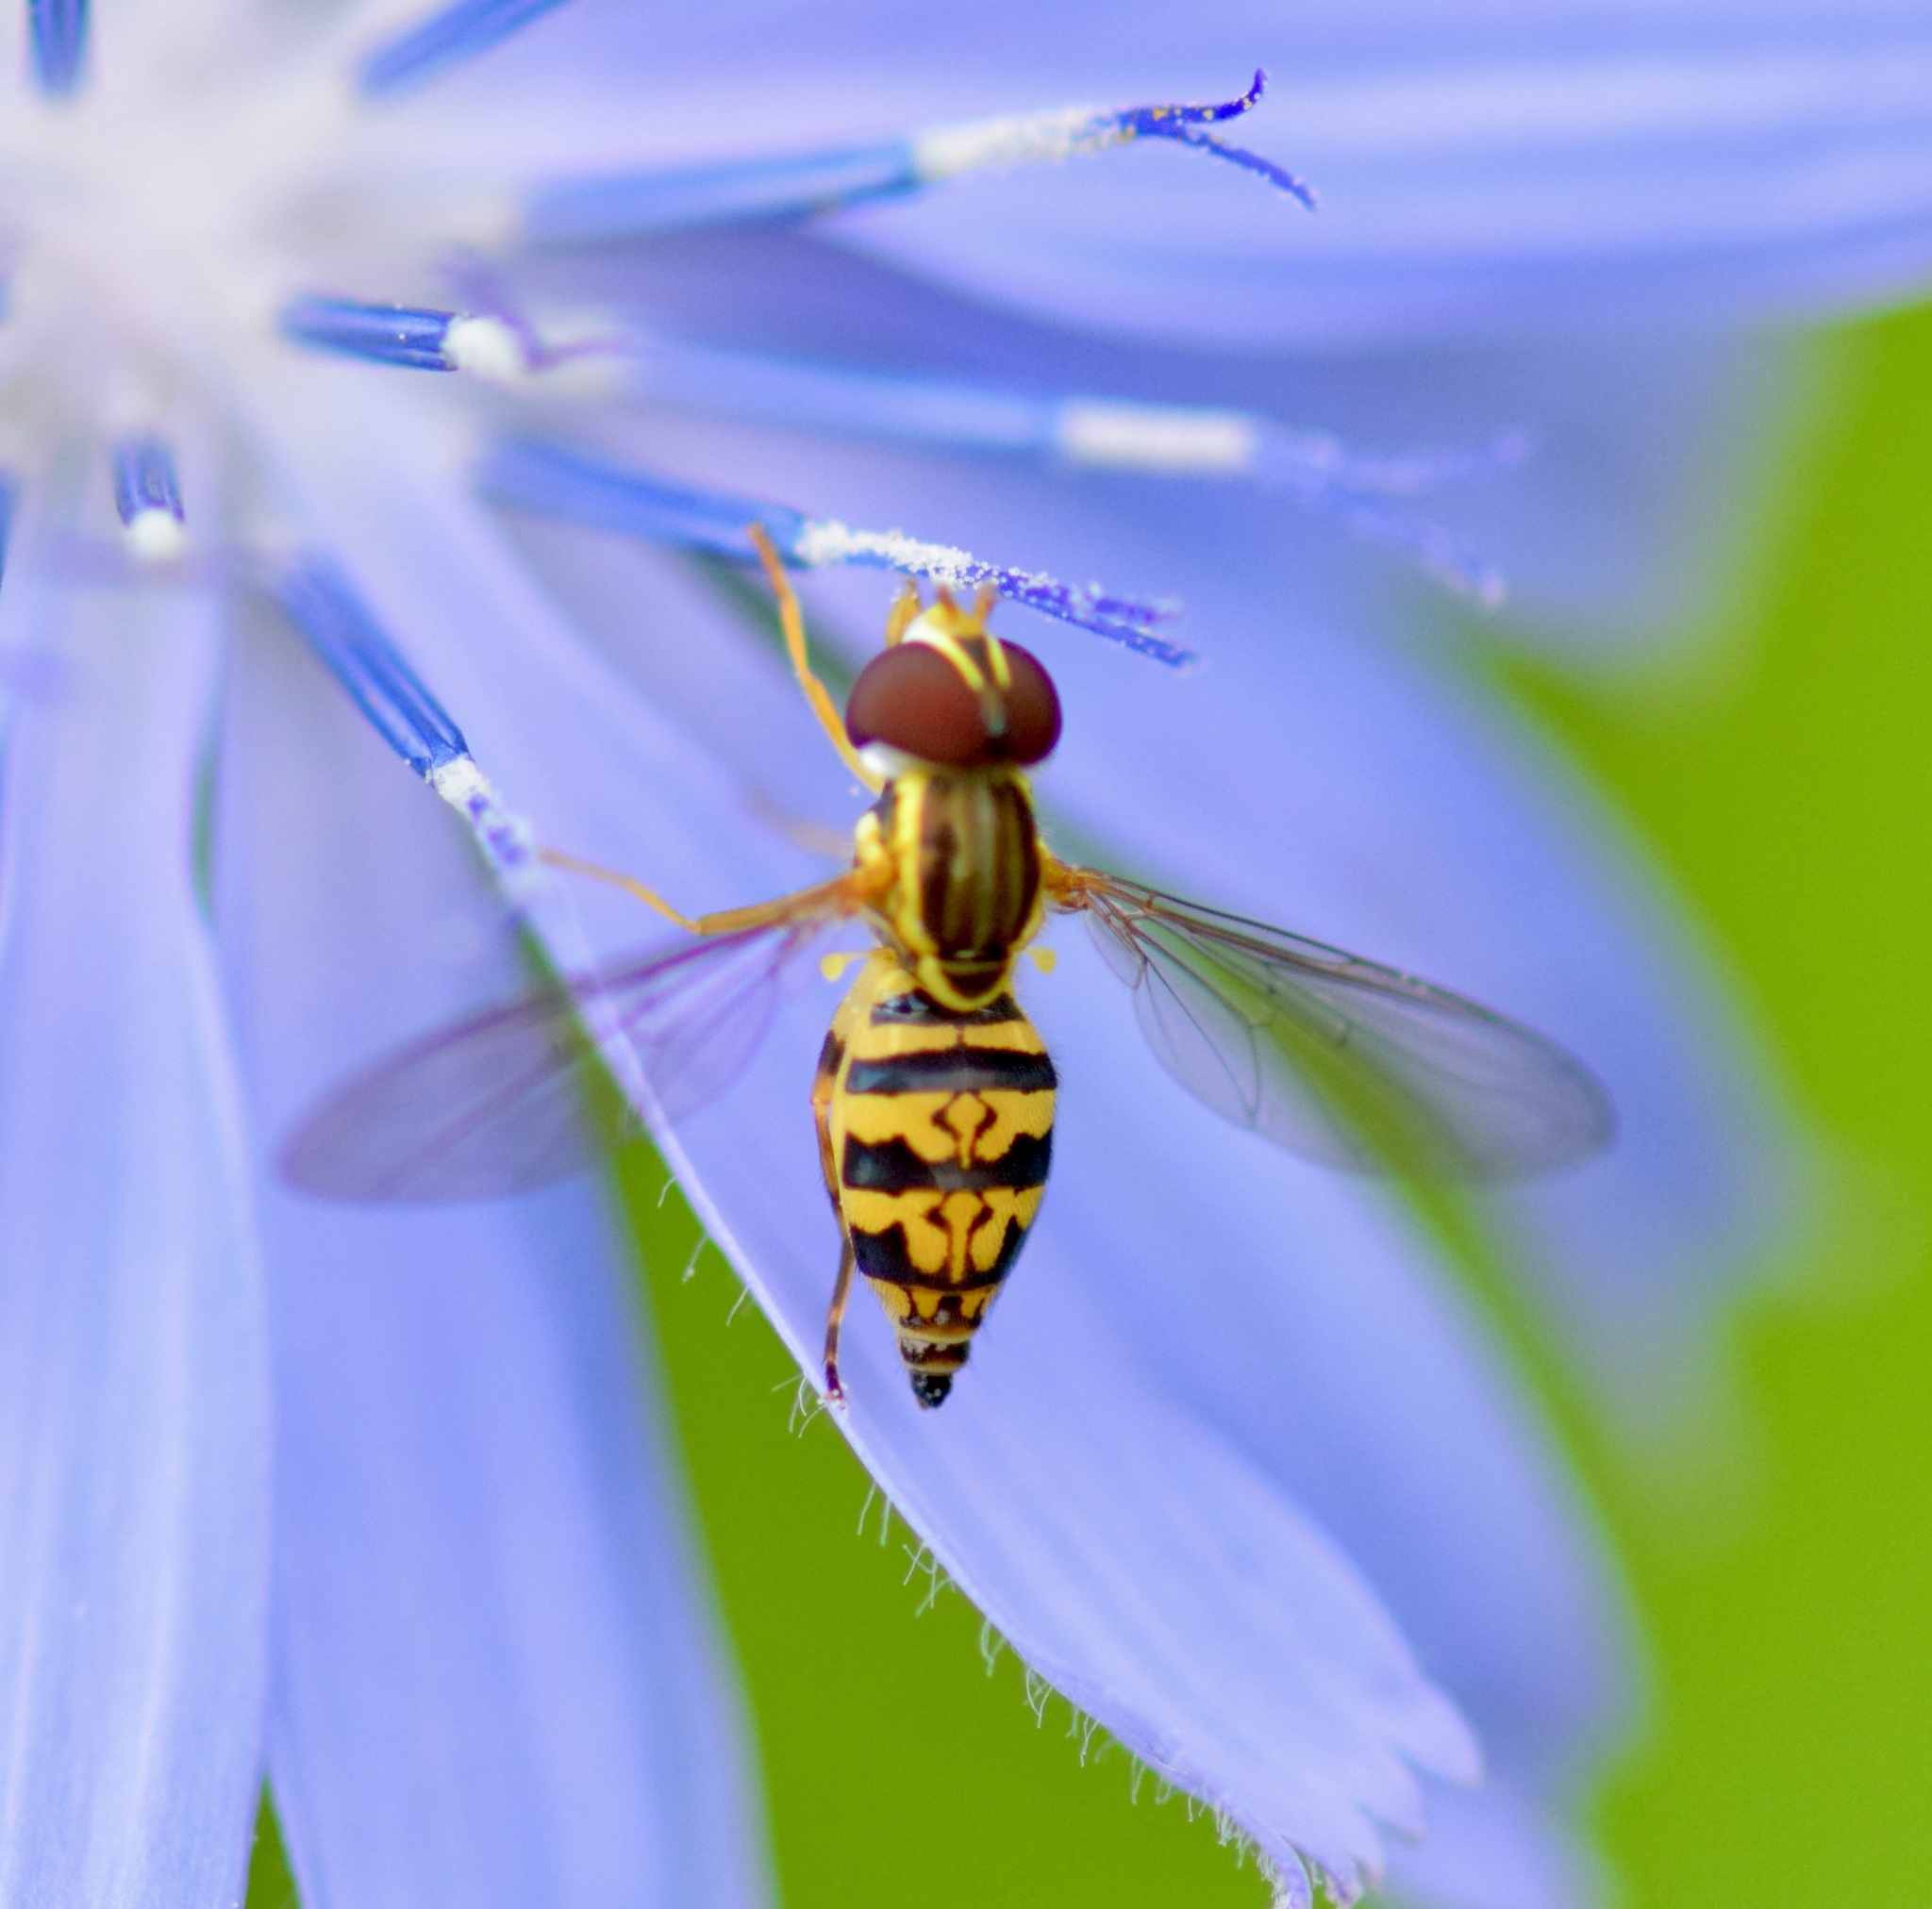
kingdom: Animalia
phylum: Arthropoda
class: Insecta
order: Diptera
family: Syrphidae
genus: Toxomerus
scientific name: Toxomerus geminatus
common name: Eastern calligrapher
